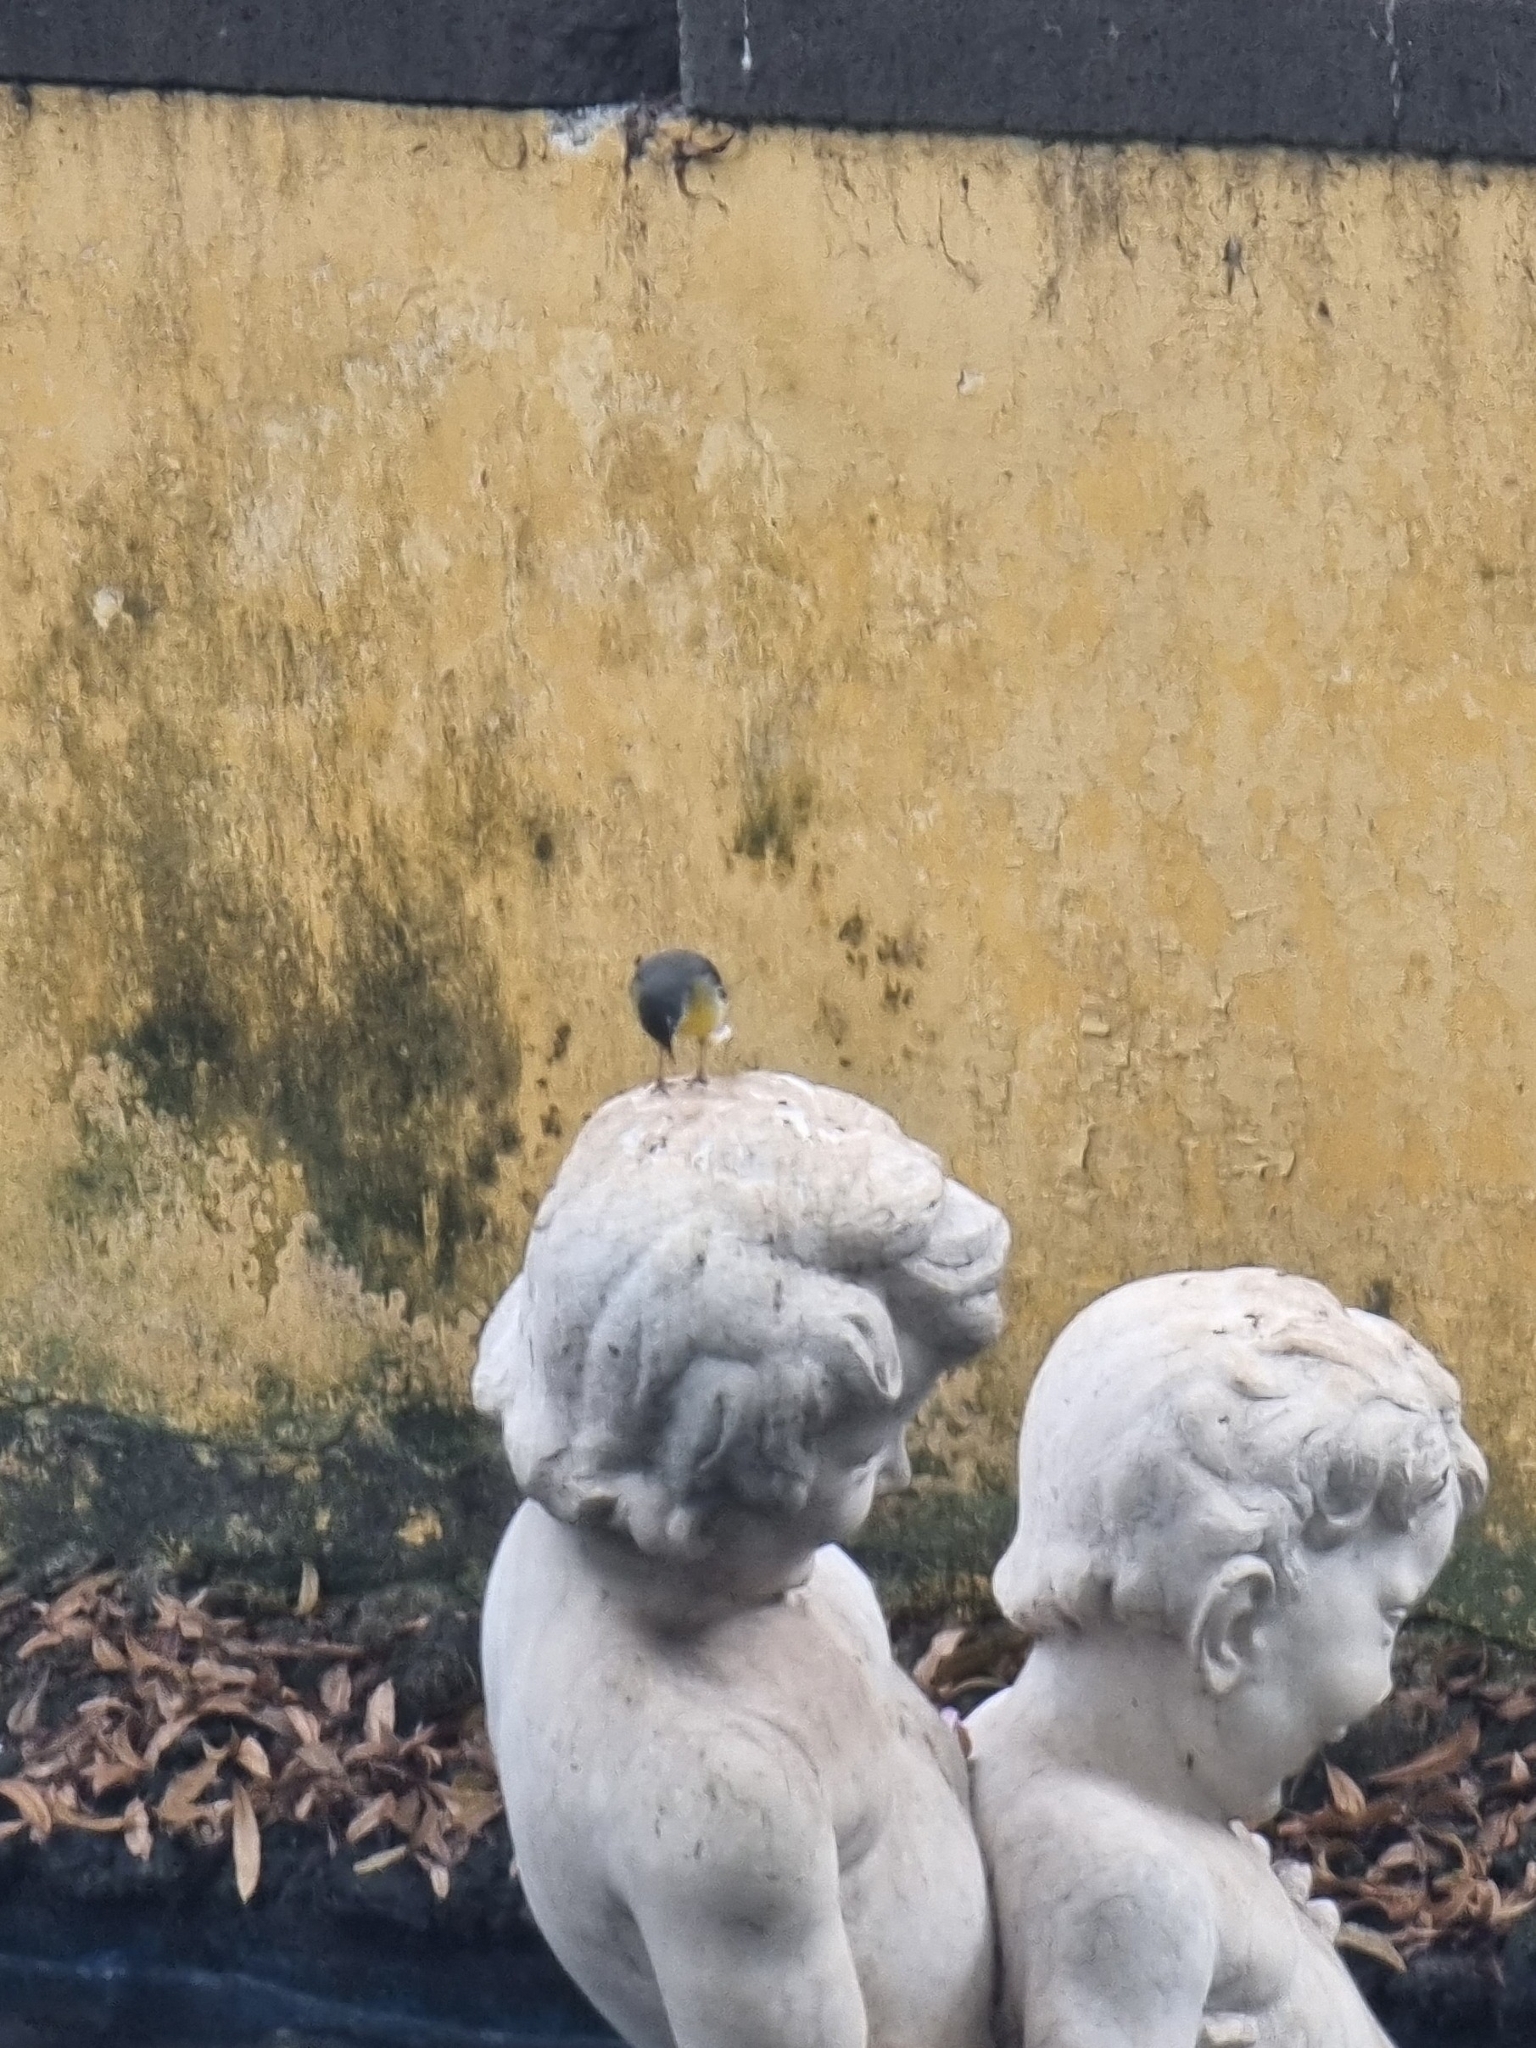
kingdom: Animalia
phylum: Chordata
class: Aves
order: Passeriformes
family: Motacillidae
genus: Motacilla
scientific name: Motacilla cinerea
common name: Grey wagtail
